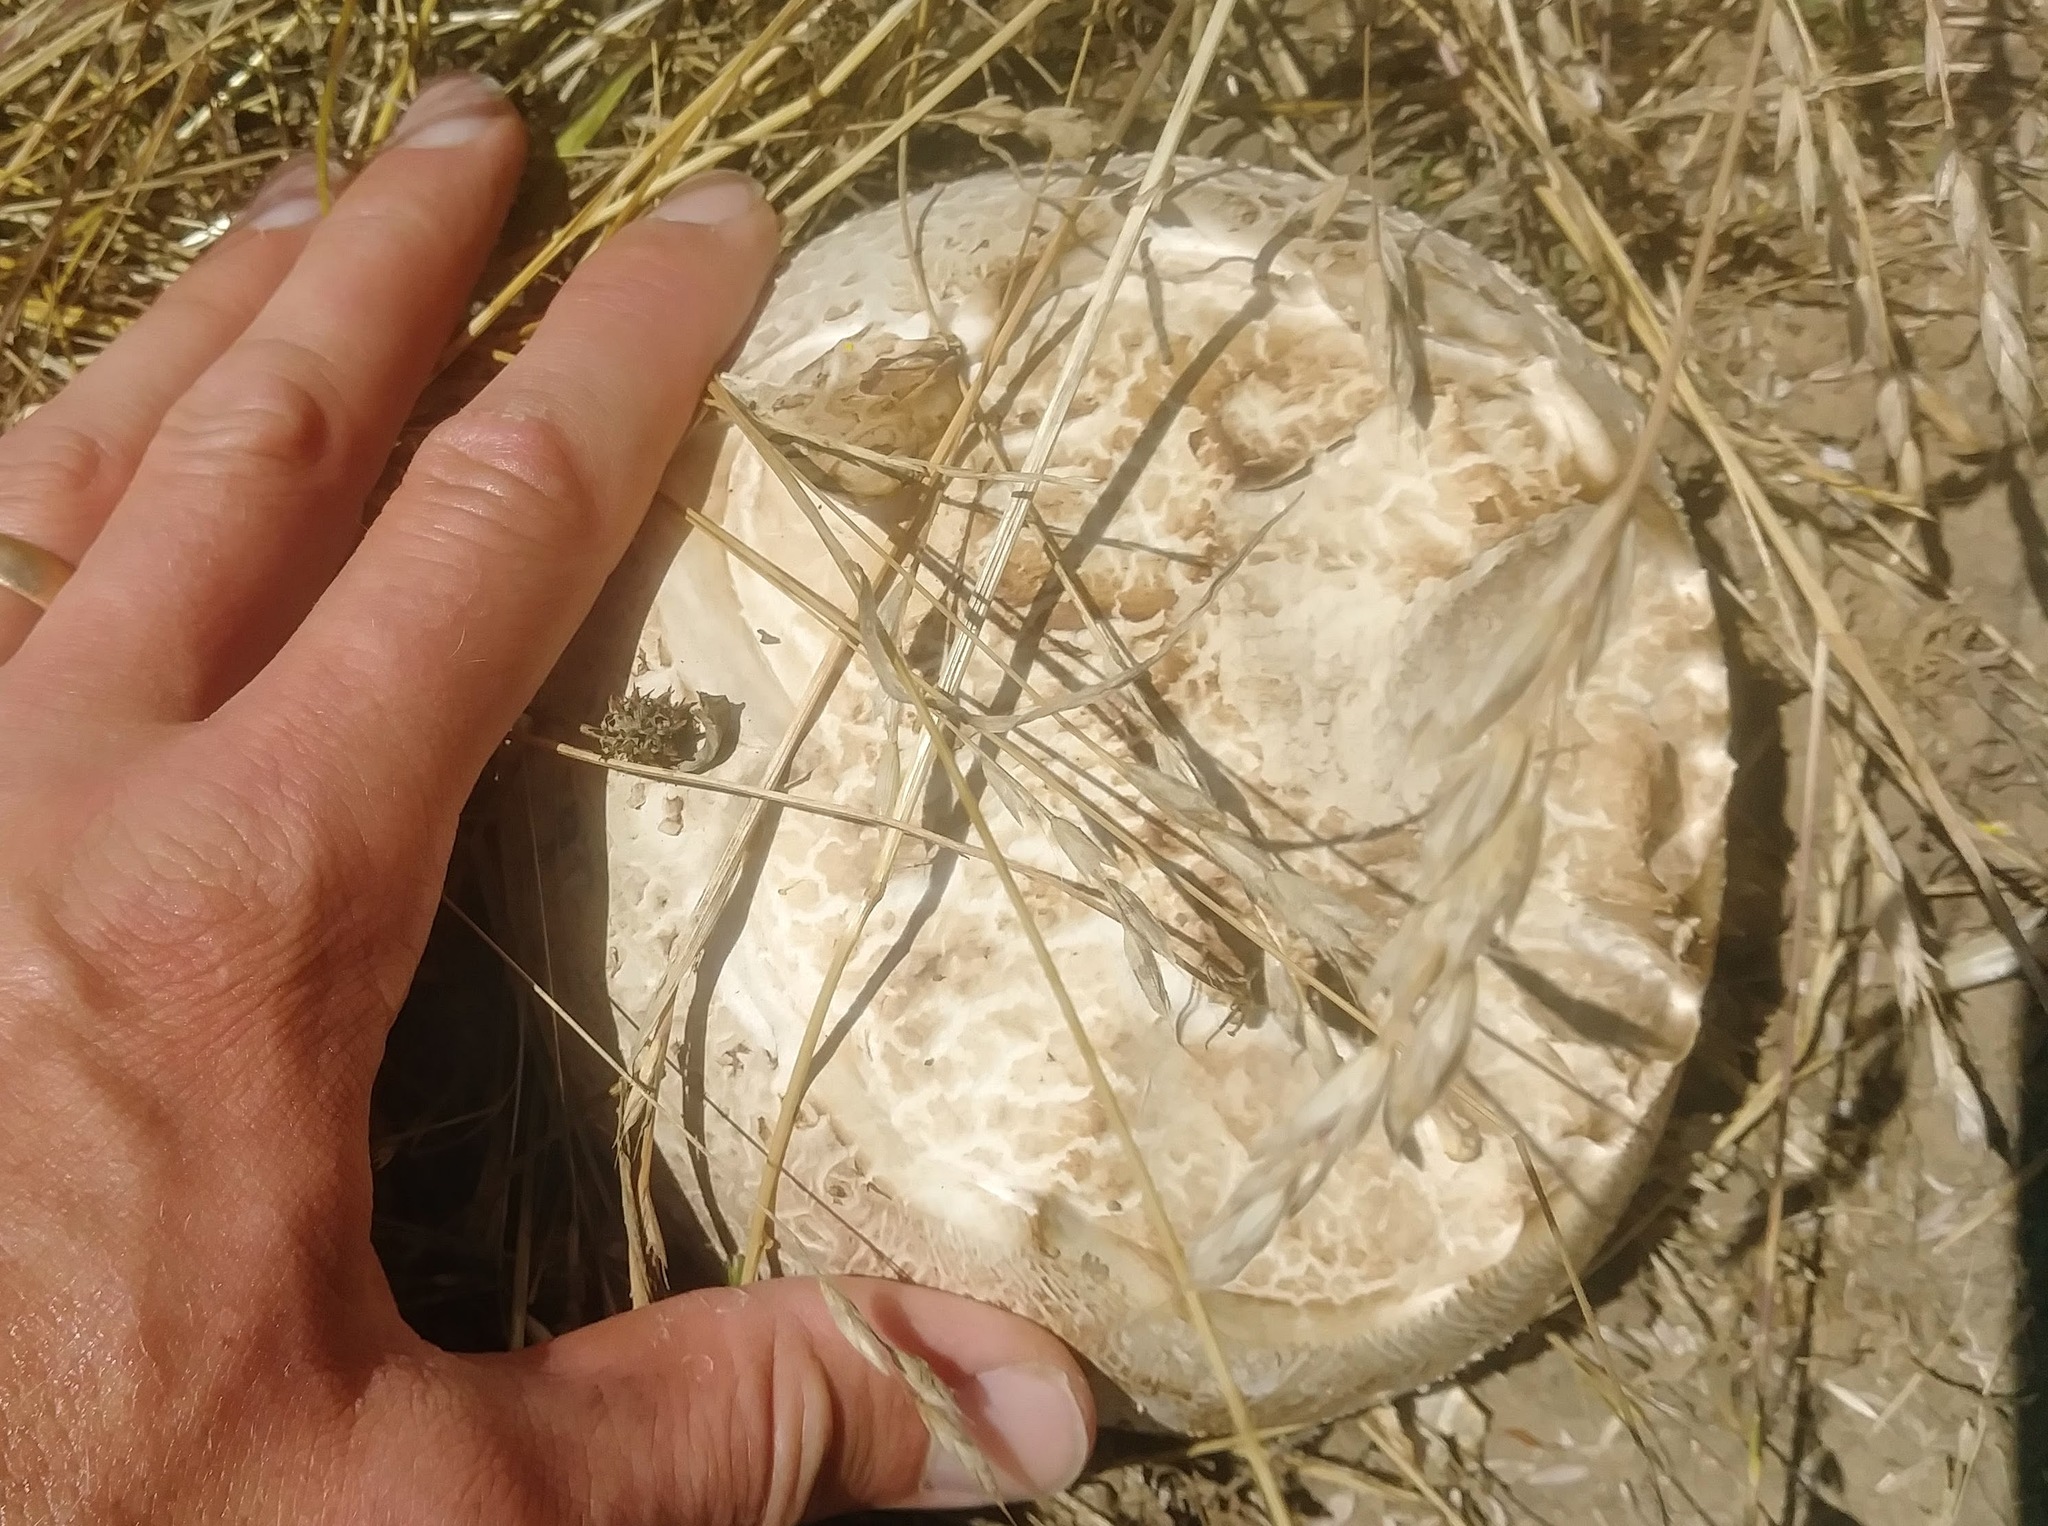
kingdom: Fungi
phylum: Basidiomycota
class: Agaricomycetes
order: Agaricales
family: Lycoperdaceae
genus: Langermannia
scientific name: Langermannia pachyderma
